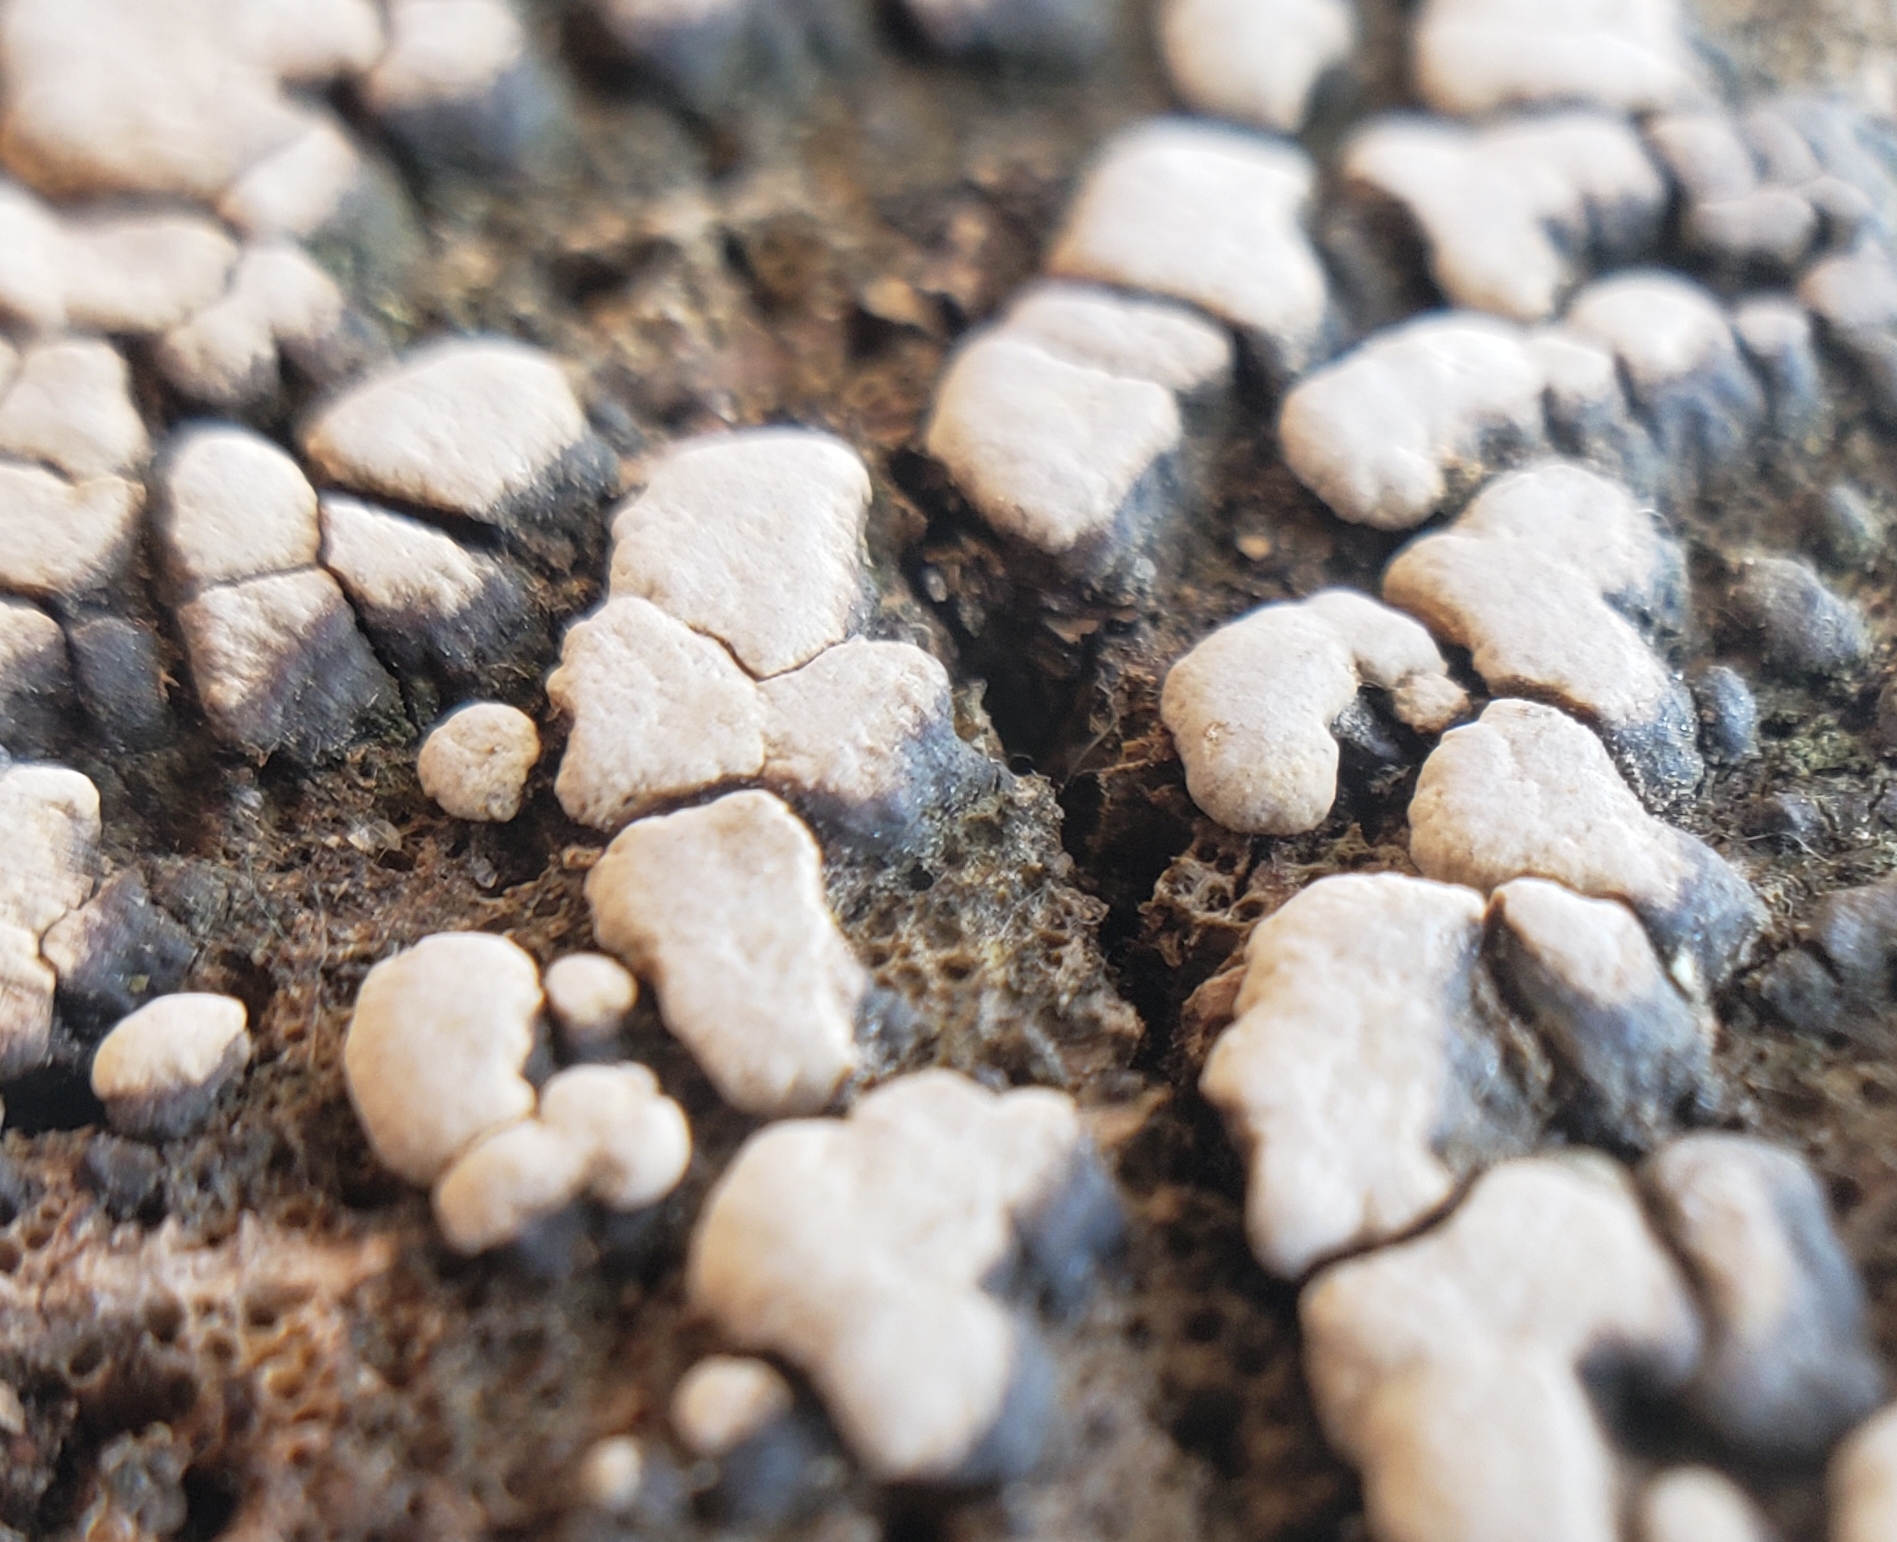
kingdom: Fungi
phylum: Basidiomycota
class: Agaricomycetes
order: Russulales
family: Stereaceae
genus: Xylobolus
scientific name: Xylobolus frustulatus
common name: Ceramic parchment
